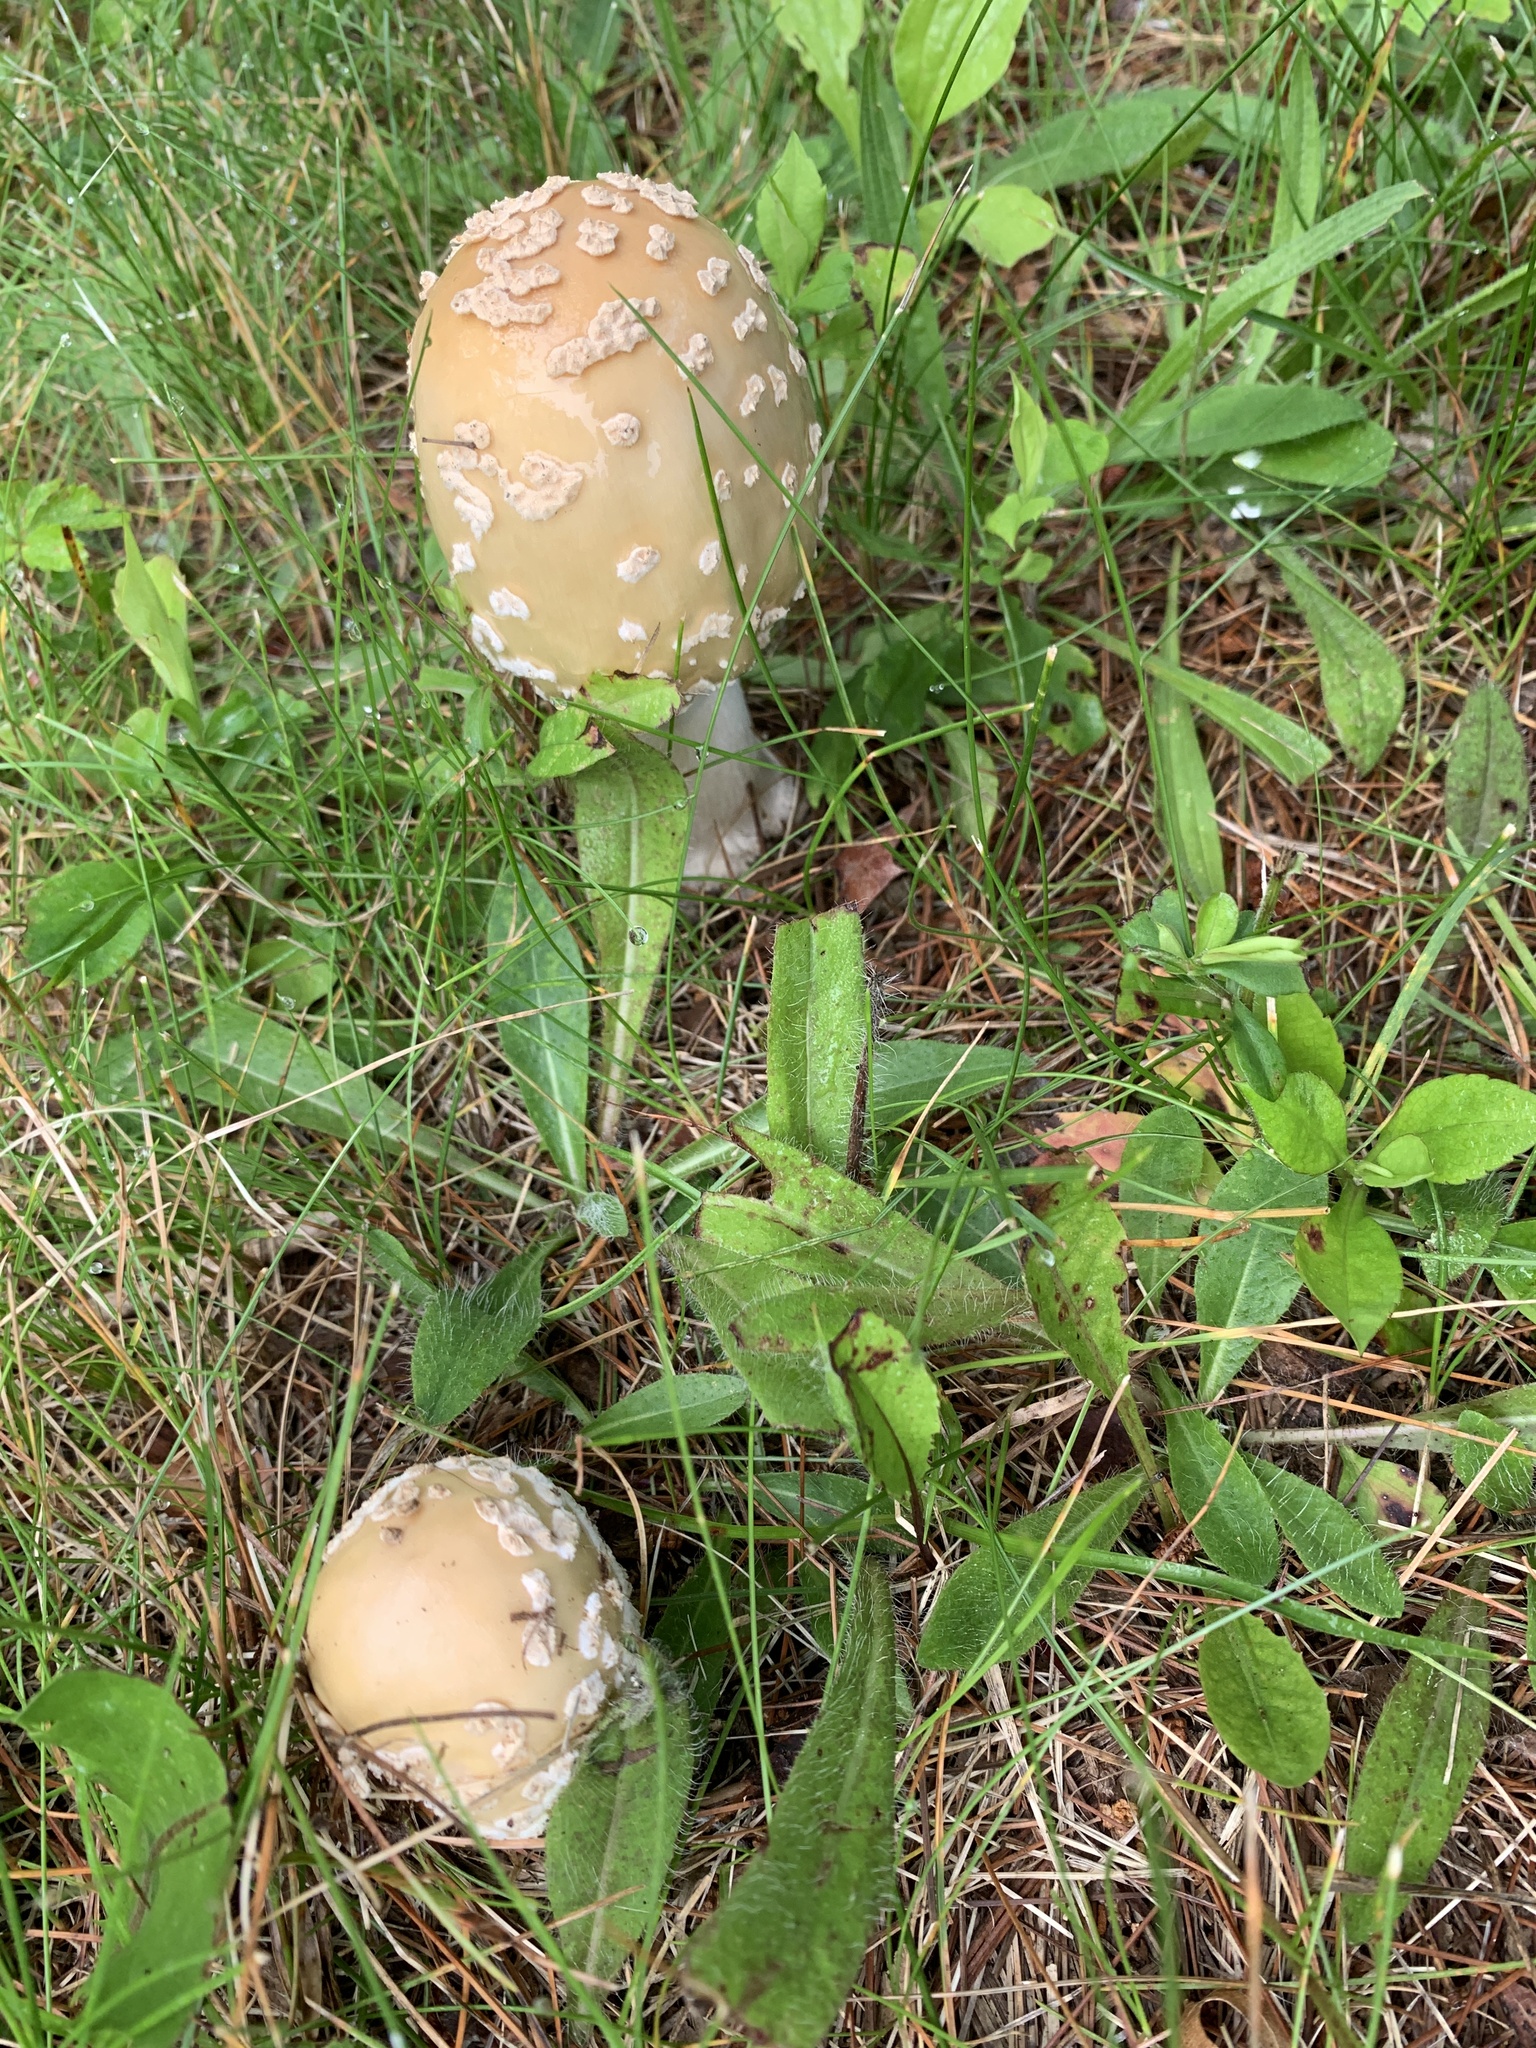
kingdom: Fungi
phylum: Basidiomycota
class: Agaricomycetes
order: Agaricales
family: Amanitaceae
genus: Amanita
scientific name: Amanita velatipes
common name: Great funnel-veil amanita
